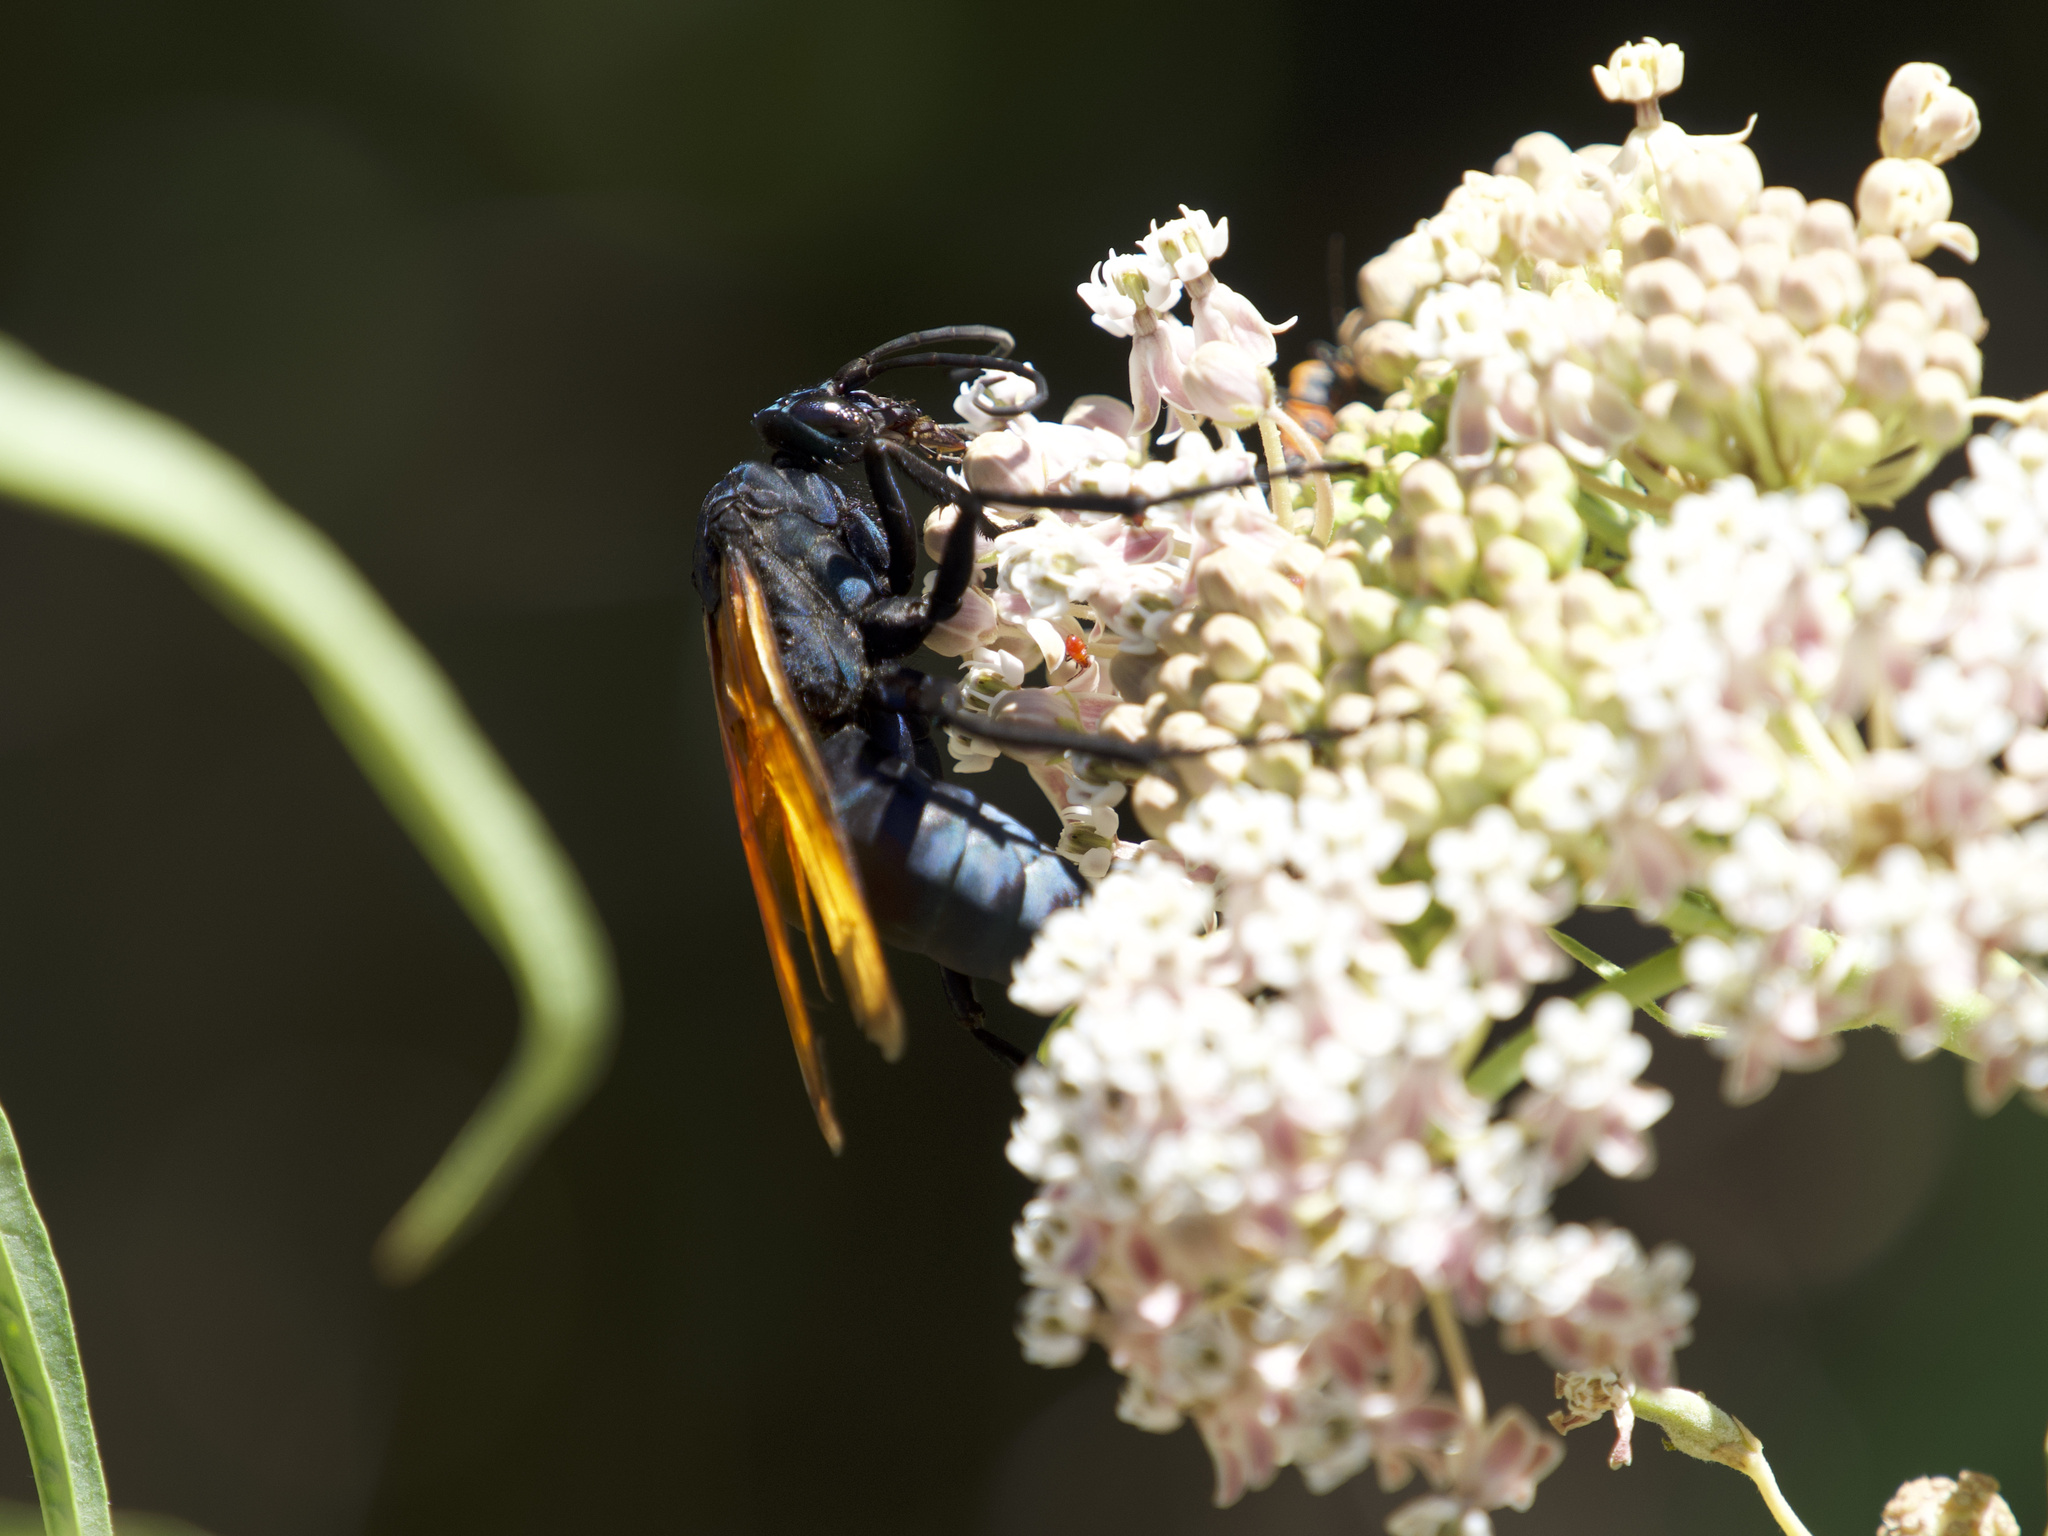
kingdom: Animalia
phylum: Arthropoda
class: Insecta
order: Hymenoptera
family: Pompilidae
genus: Pepsis
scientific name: Pepsis thisbe
